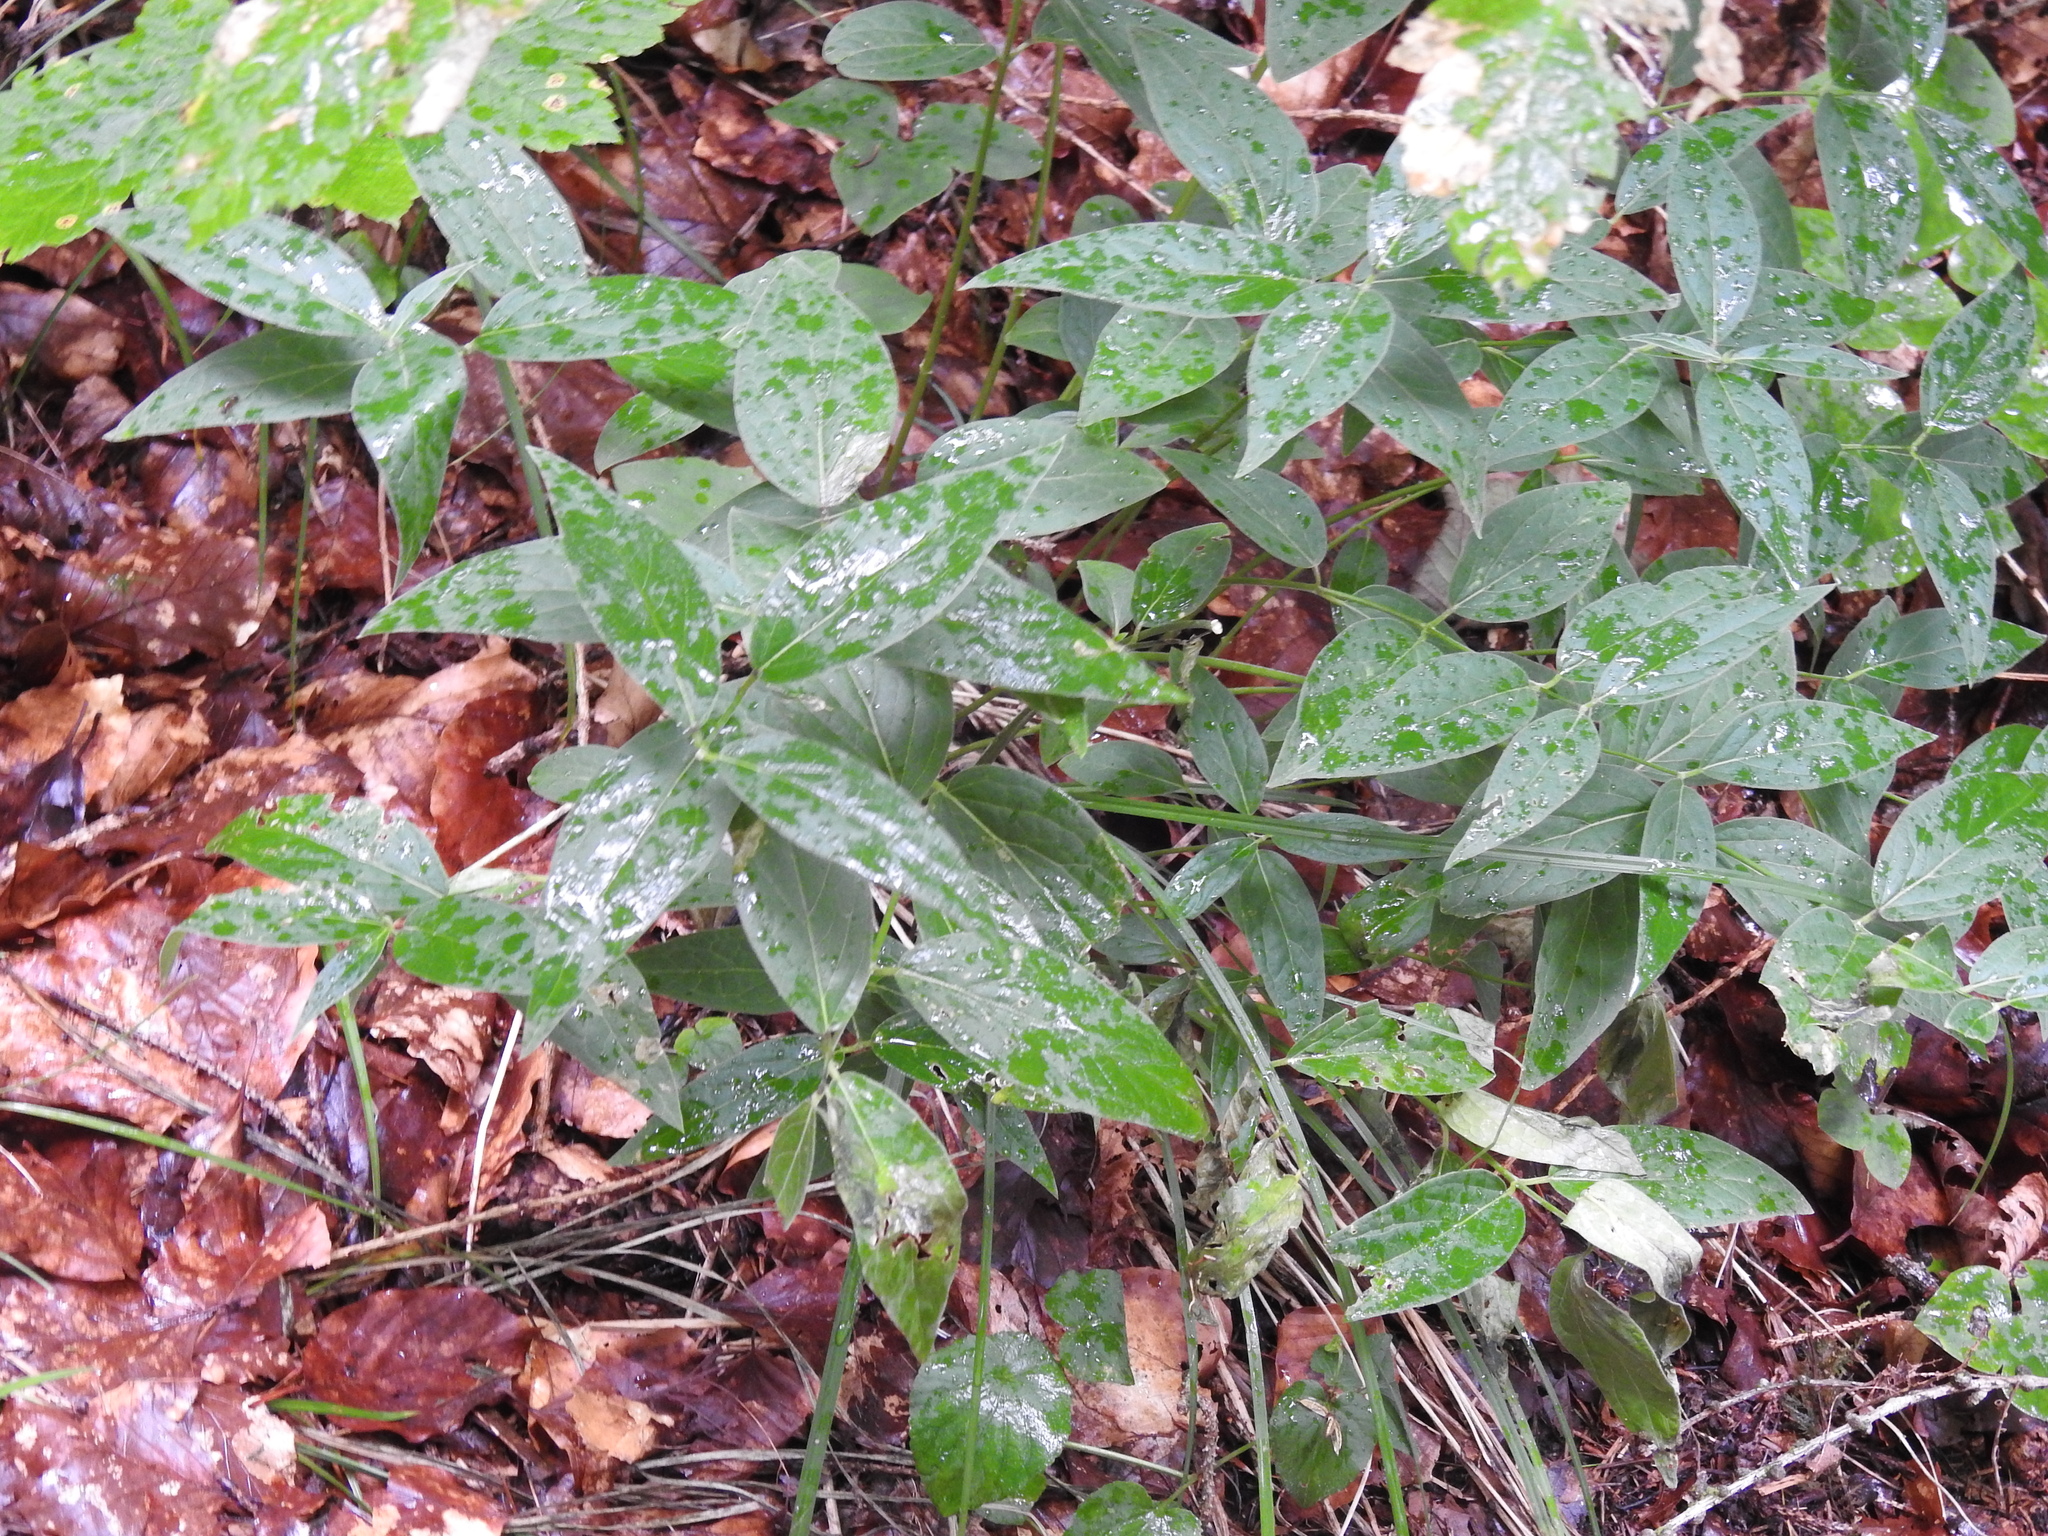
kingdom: Plantae
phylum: Tracheophyta
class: Magnoliopsida
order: Gentianales
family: Apocynaceae
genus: Vincetoxicum
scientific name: Vincetoxicum hirundinaria
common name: White swallowwort
